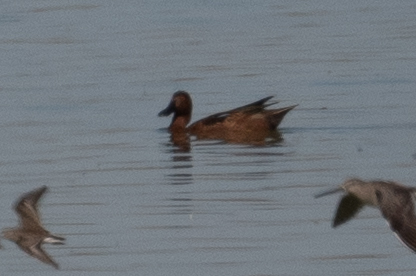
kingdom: Animalia
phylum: Chordata
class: Aves
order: Anseriformes
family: Anatidae
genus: Spatula
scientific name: Spatula cyanoptera
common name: Cinnamon teal
